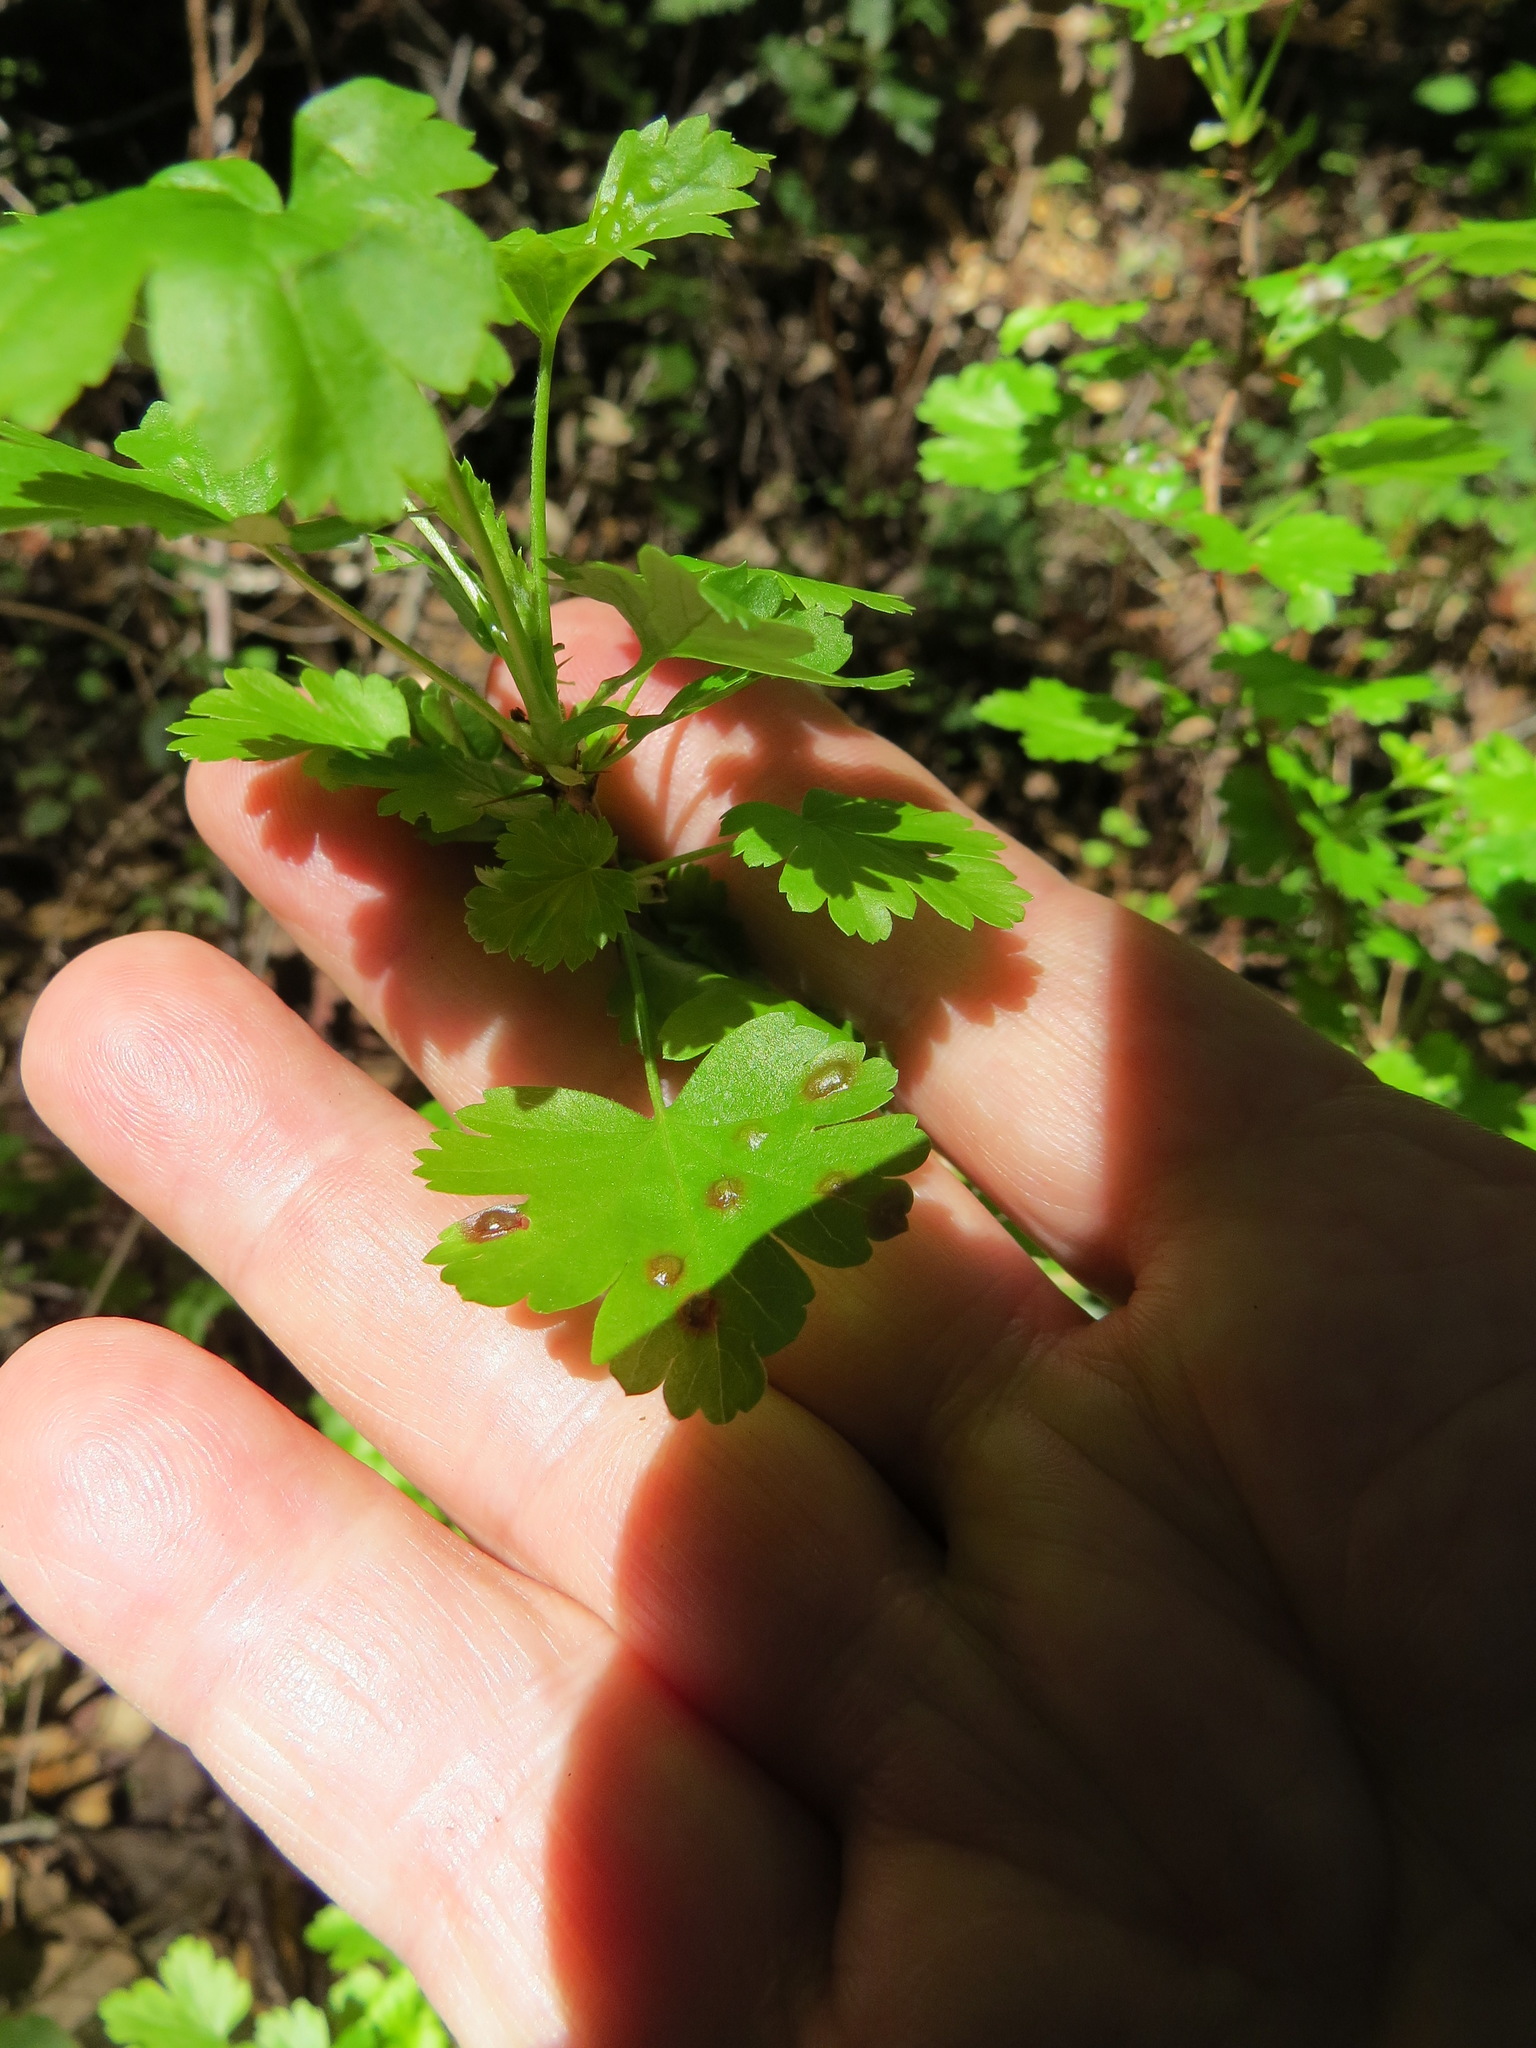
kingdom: Animalia
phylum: Arthropoda
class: Insecta
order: Diptera
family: Cecidomyiidae
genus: Ribesia
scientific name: Ribesia
